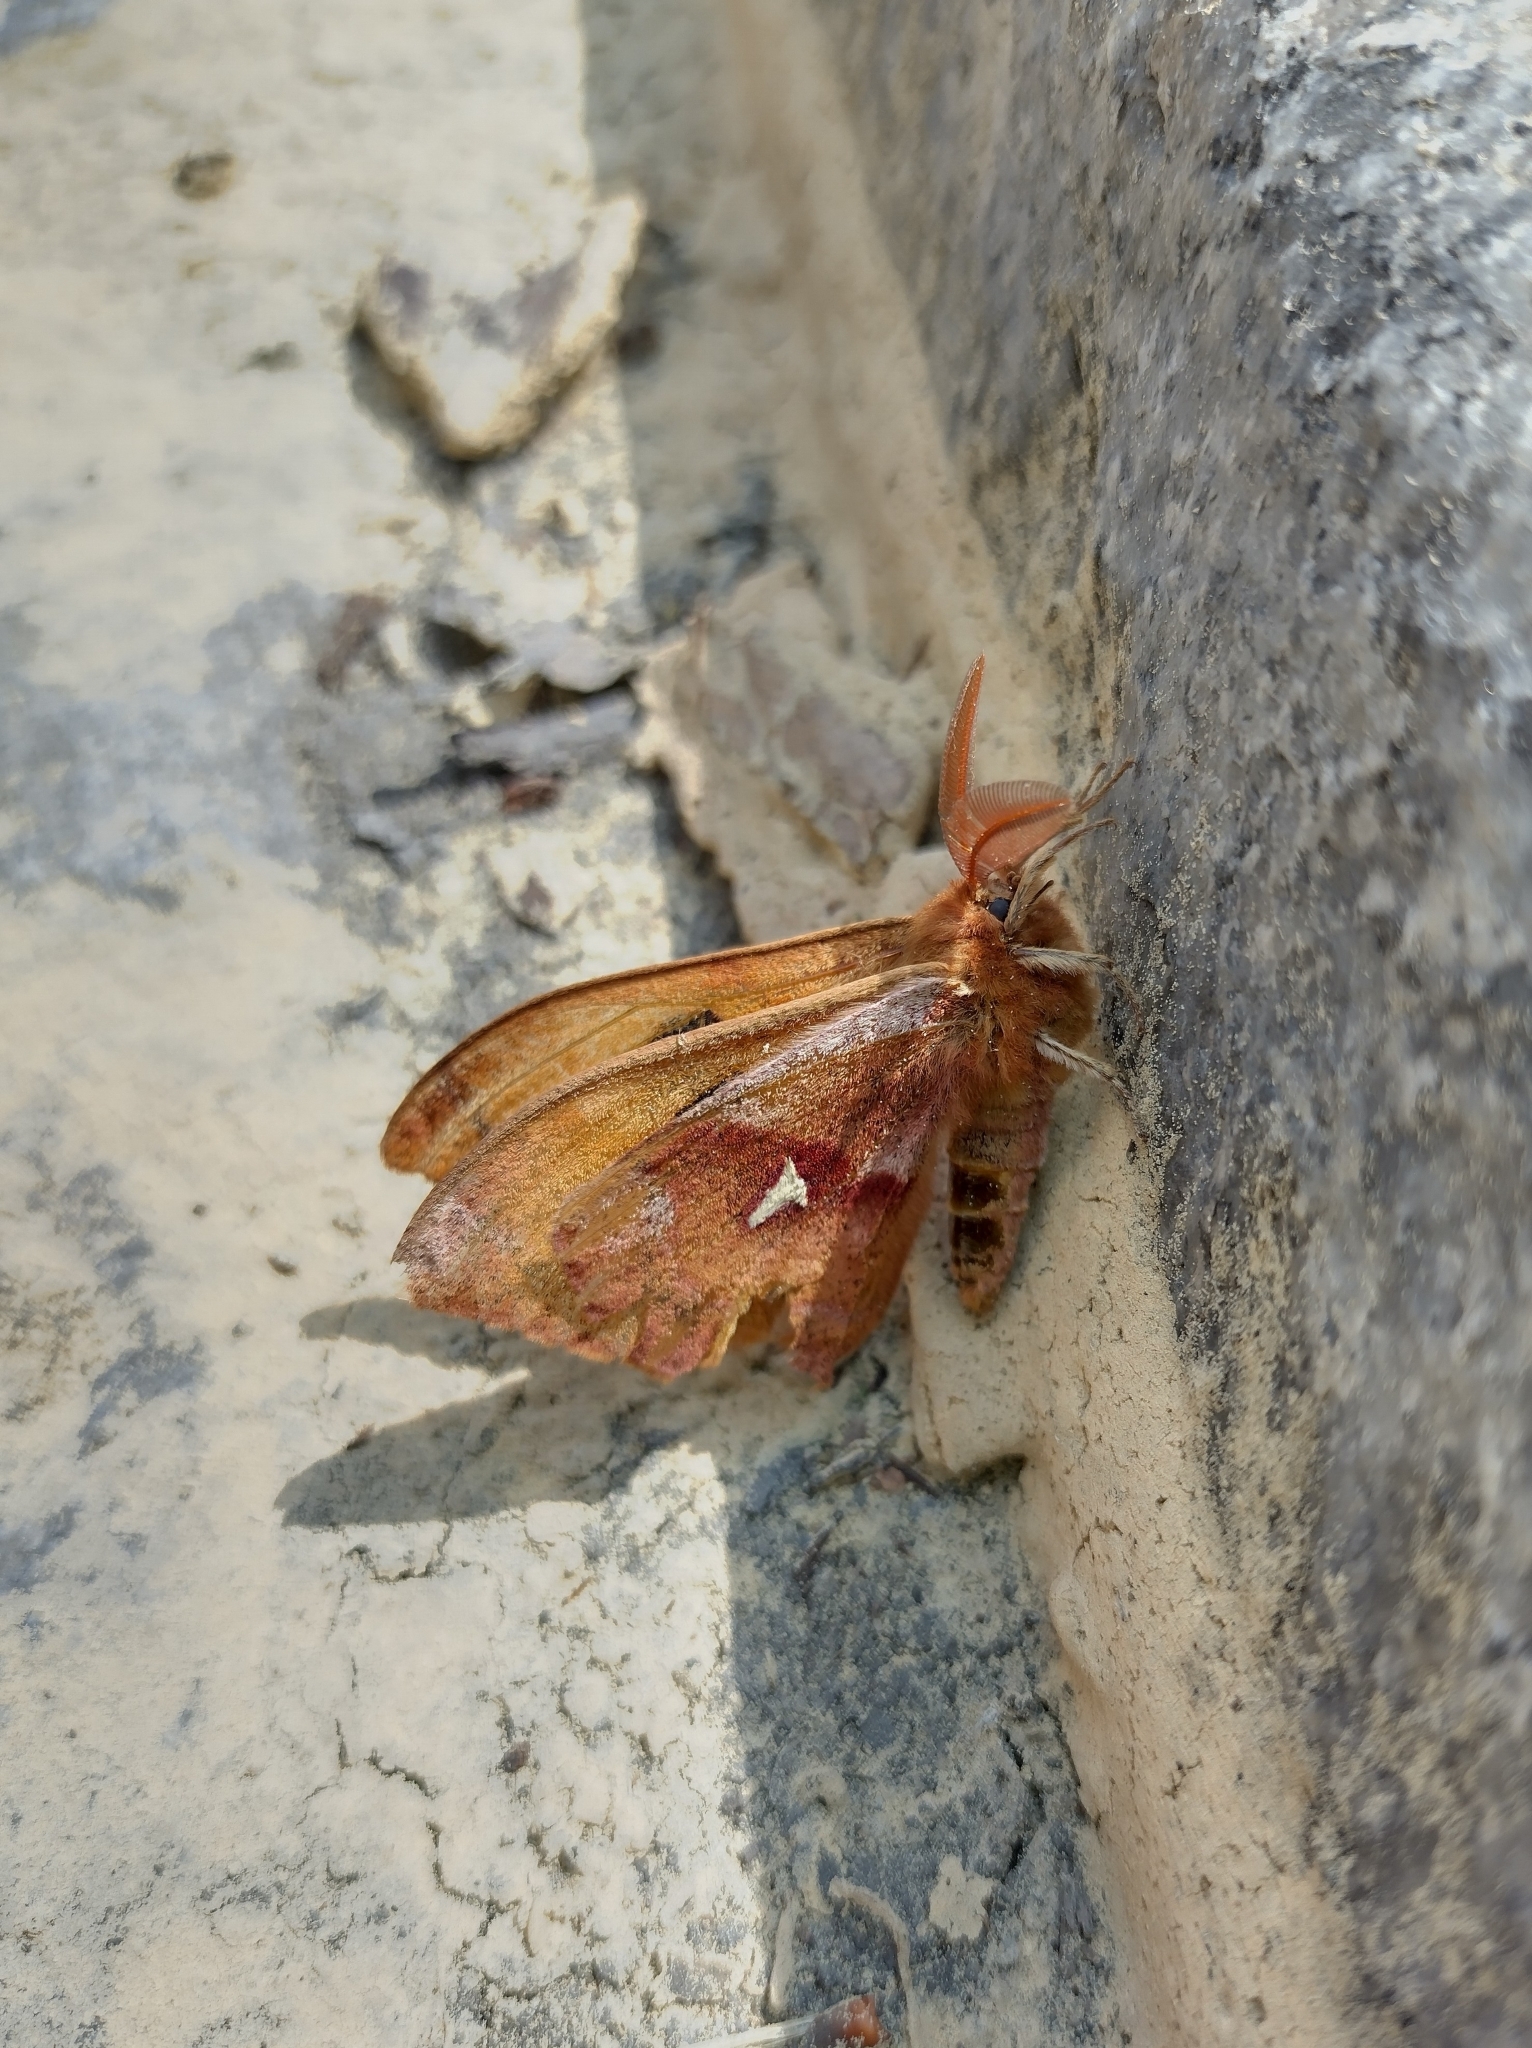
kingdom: Animalia
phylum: Arthropoda
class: Insecta
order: Lepidoptera
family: Saturniidae
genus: Aglia
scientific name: Aglia tau
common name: Tau emperor
